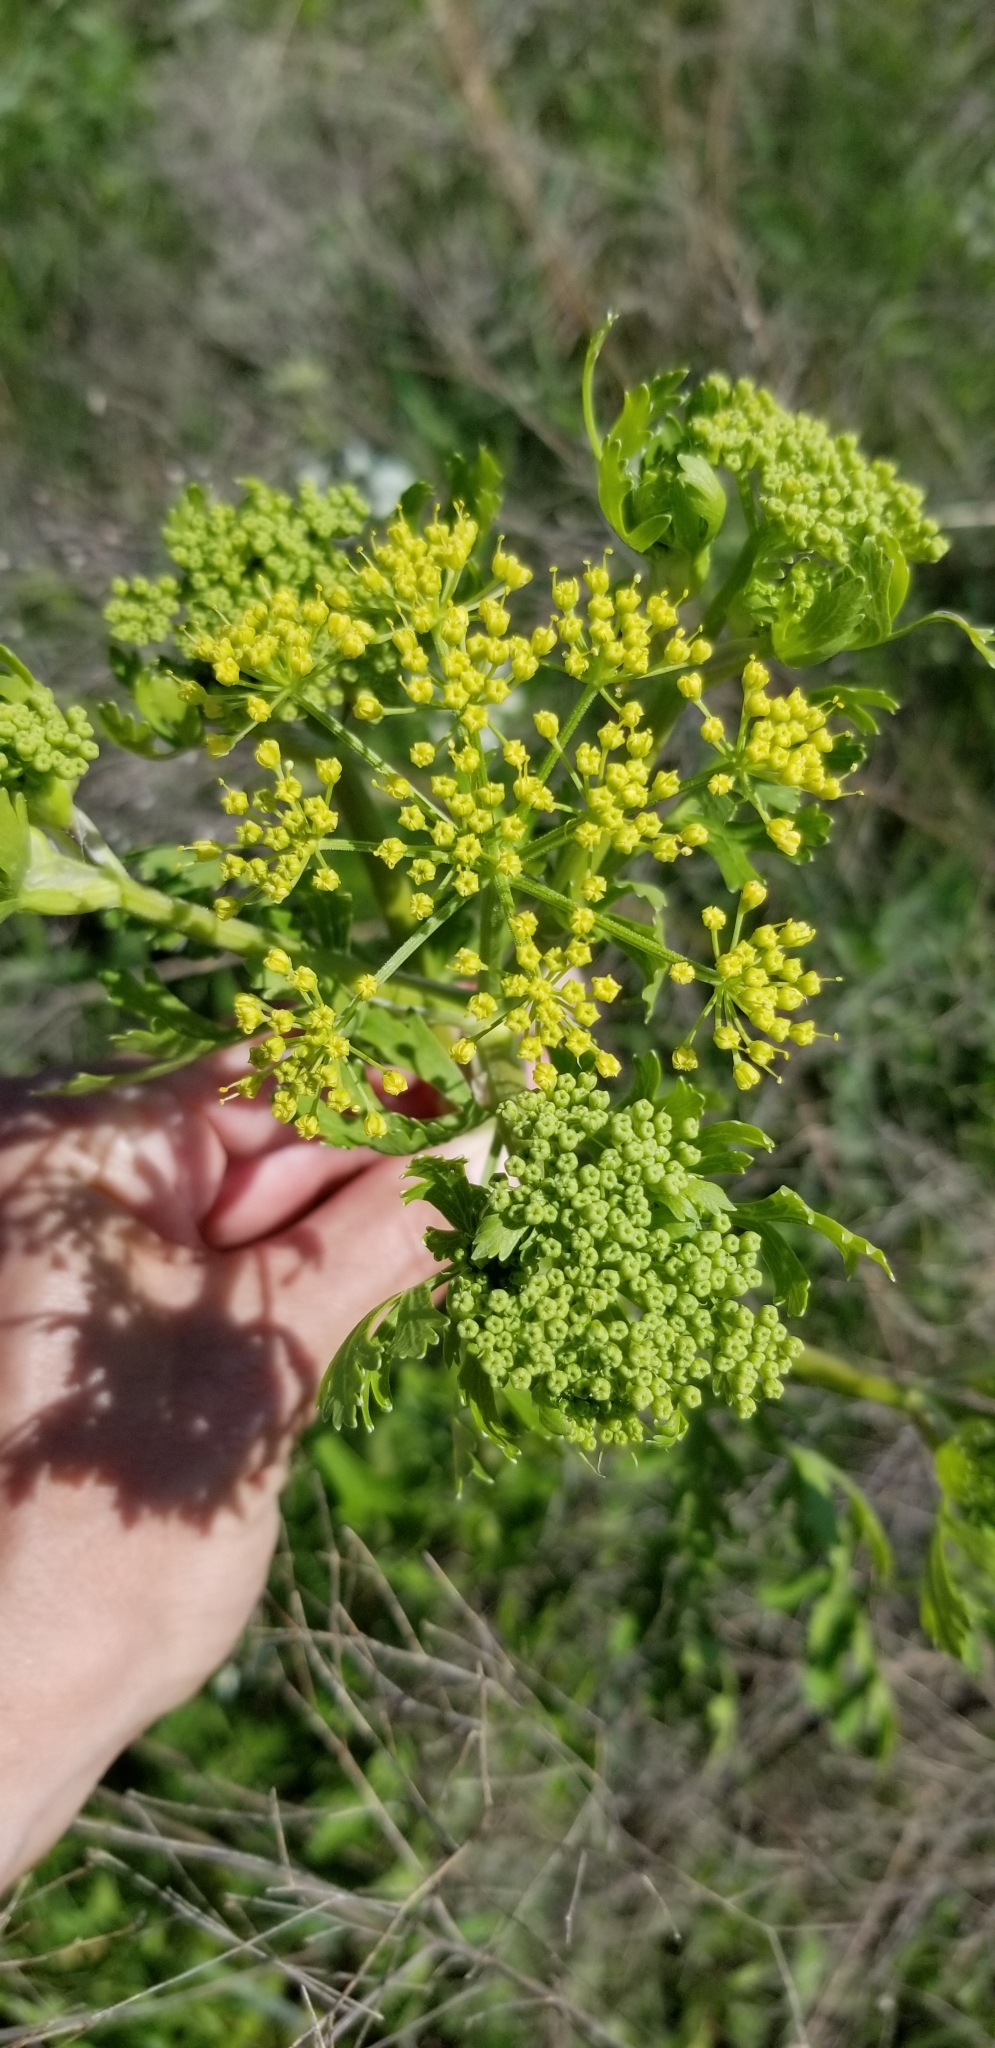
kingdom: Plantae
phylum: Tracheophyta
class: Magnoliopsida
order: Apiales
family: Apiaceae
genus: Polytaenia
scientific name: Polytaenia texana
